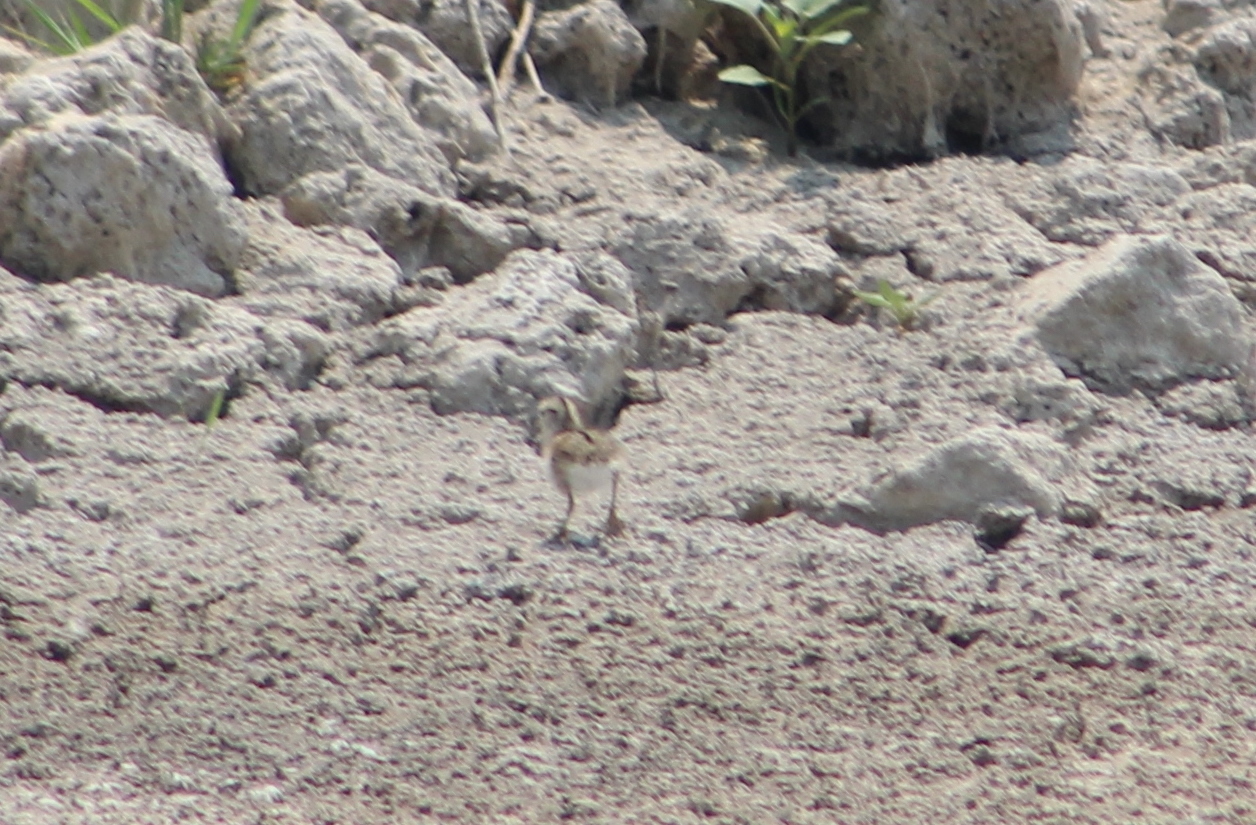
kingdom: Animalia
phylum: Chordata
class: Aves
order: Charadriiformes
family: Scolopacidae
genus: Actitis
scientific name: Actitis macularius
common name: Spotted sandpiper
